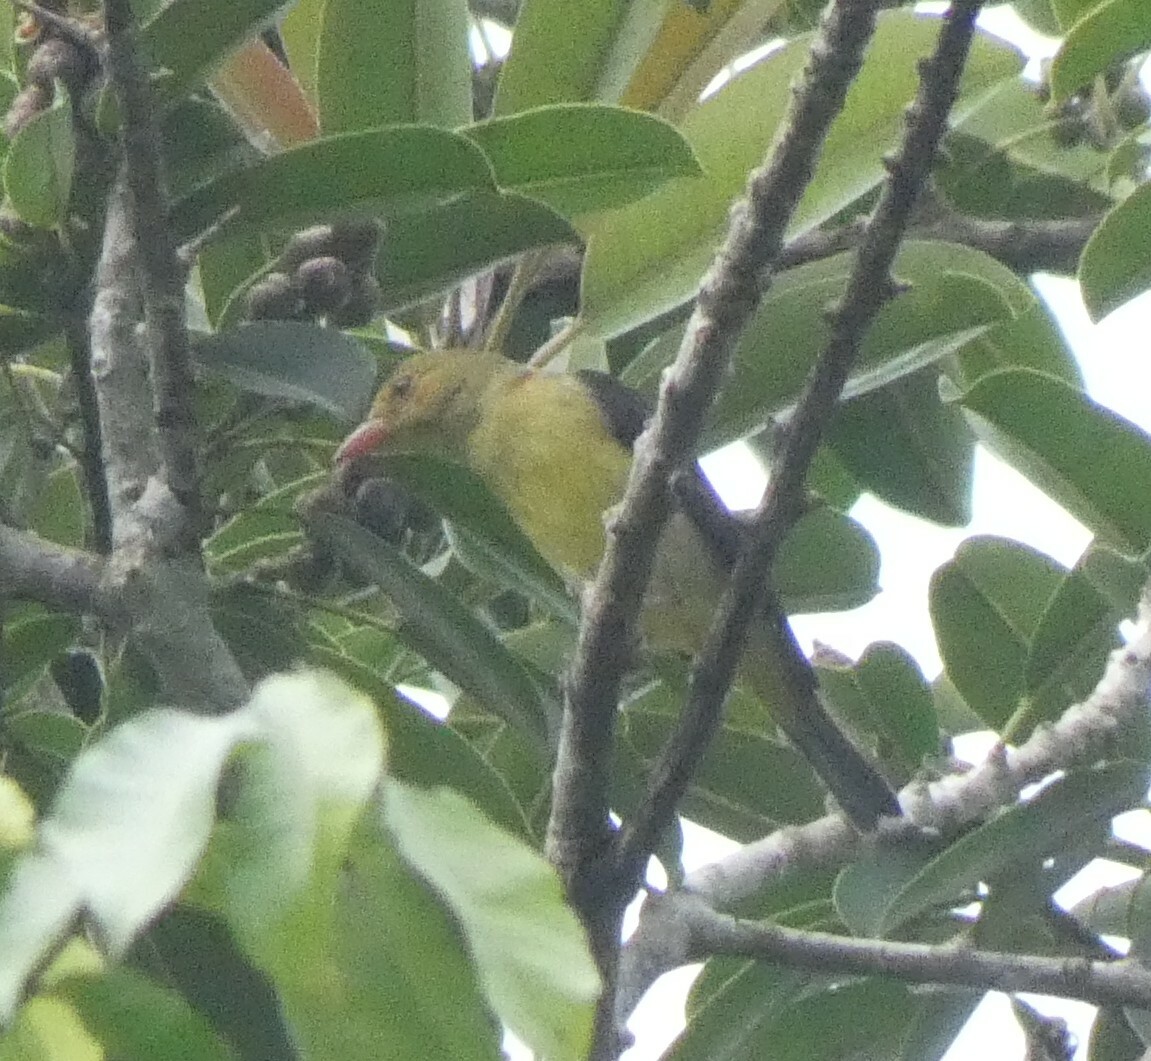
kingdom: Animalia
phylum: Chordata
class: Aves
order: Passeriformes
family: Cardinalidae
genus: Piranga
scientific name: Piranga olivacea
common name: Scarlet tanager
